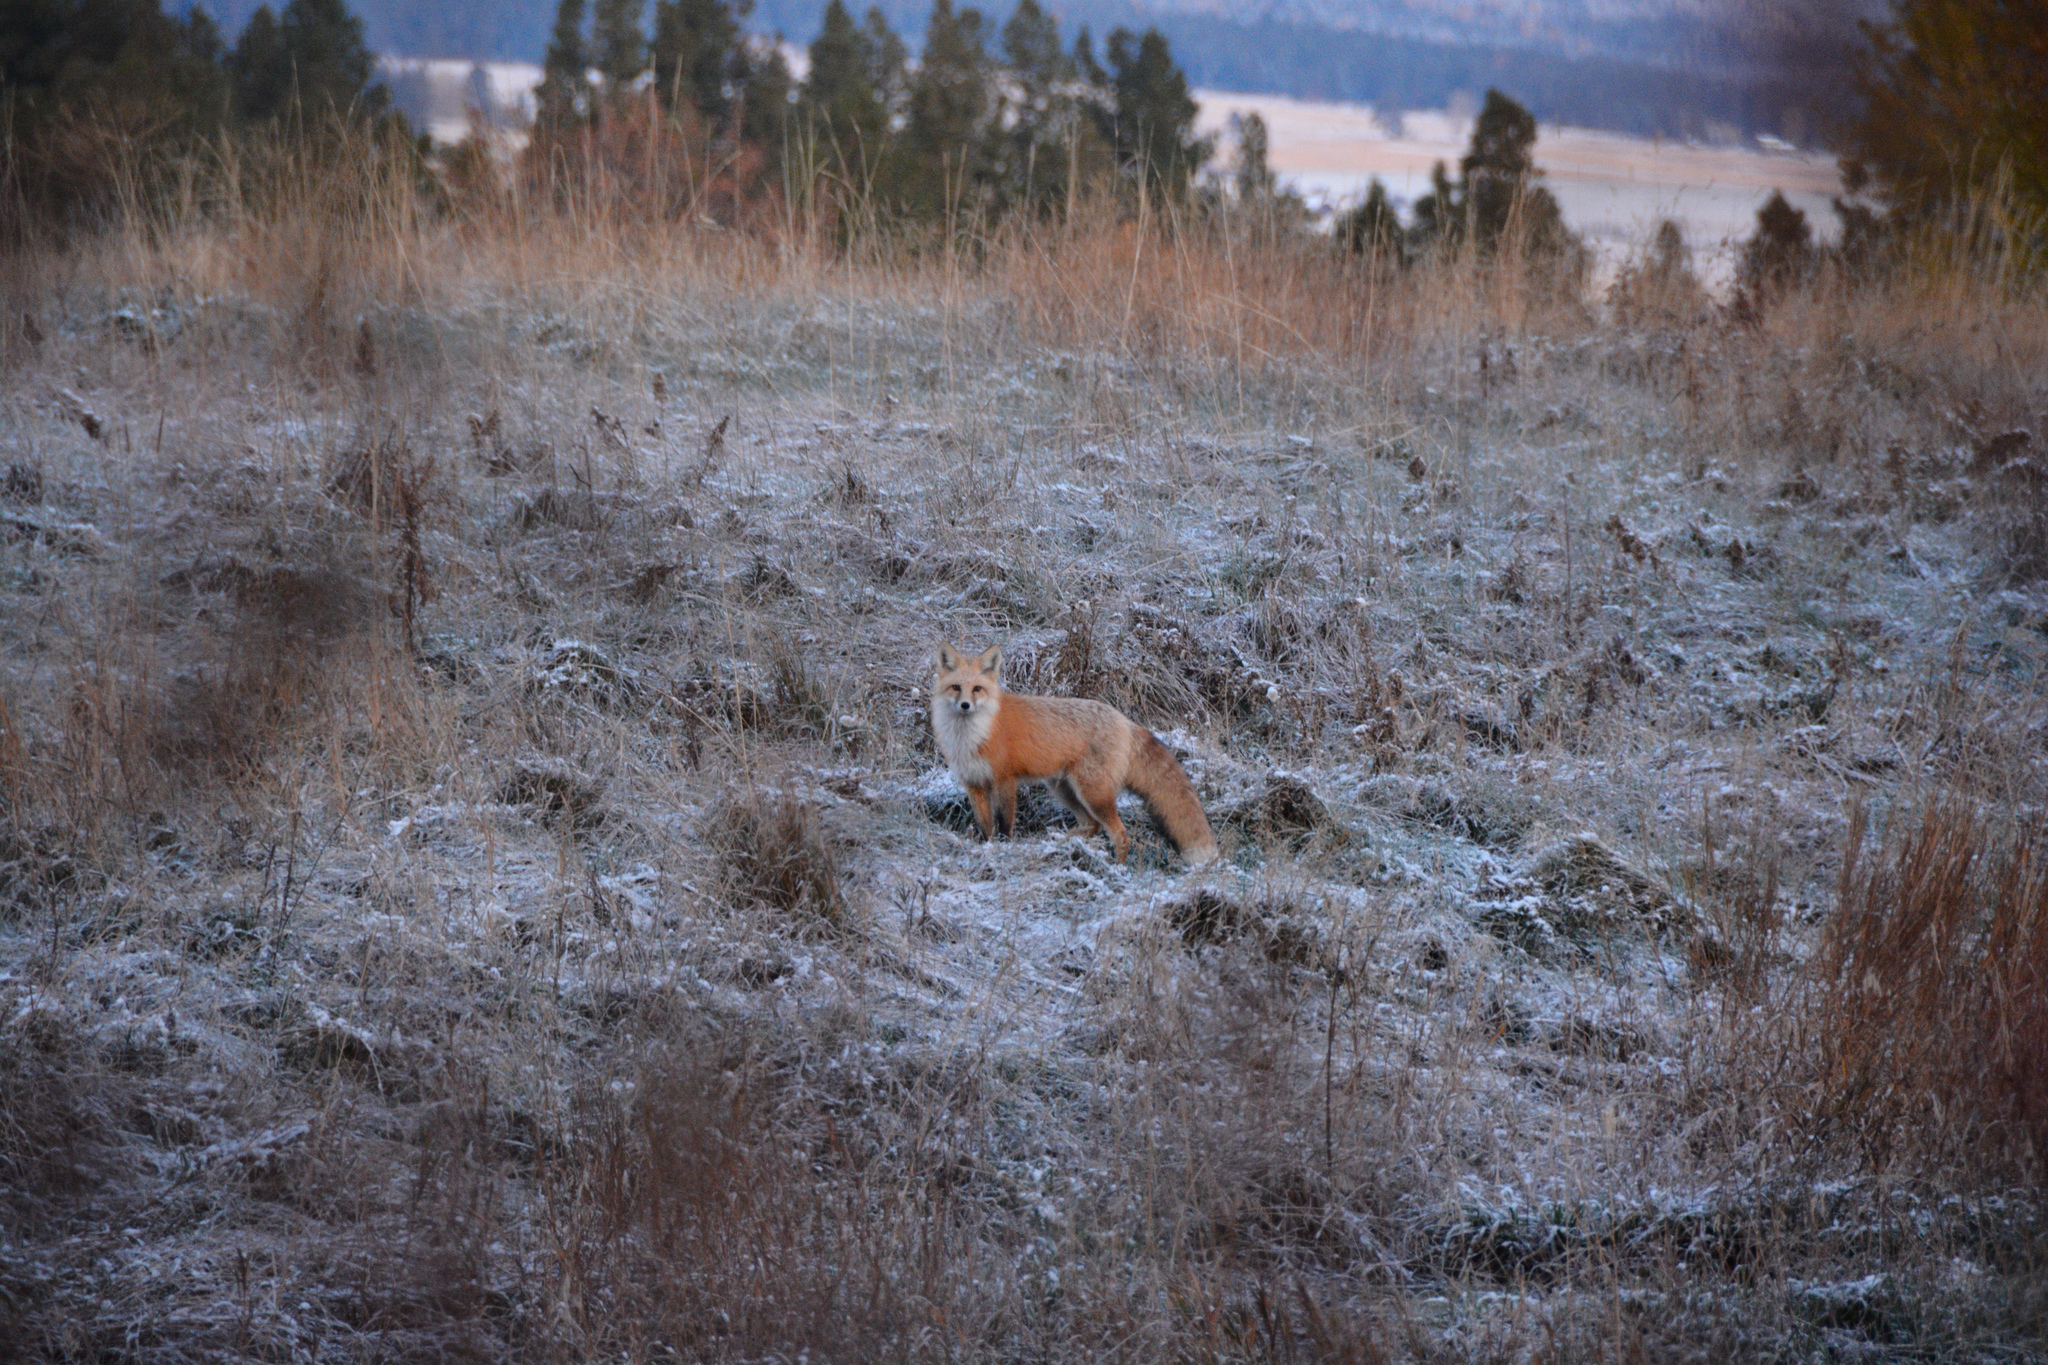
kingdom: Animalia
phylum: Chordata
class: Mammalia
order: Carnivora
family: Canidae
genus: Vulpes
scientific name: Vulpes vulpes
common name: Red fox
